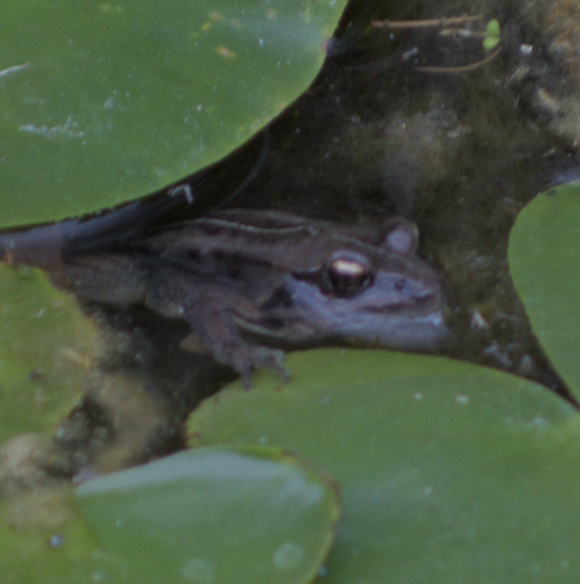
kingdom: Animalia
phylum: Chordata
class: Amphibia
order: Anura
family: Ranidae
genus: Lithobates
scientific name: Lithobates sylvaticus
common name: Wood frog
